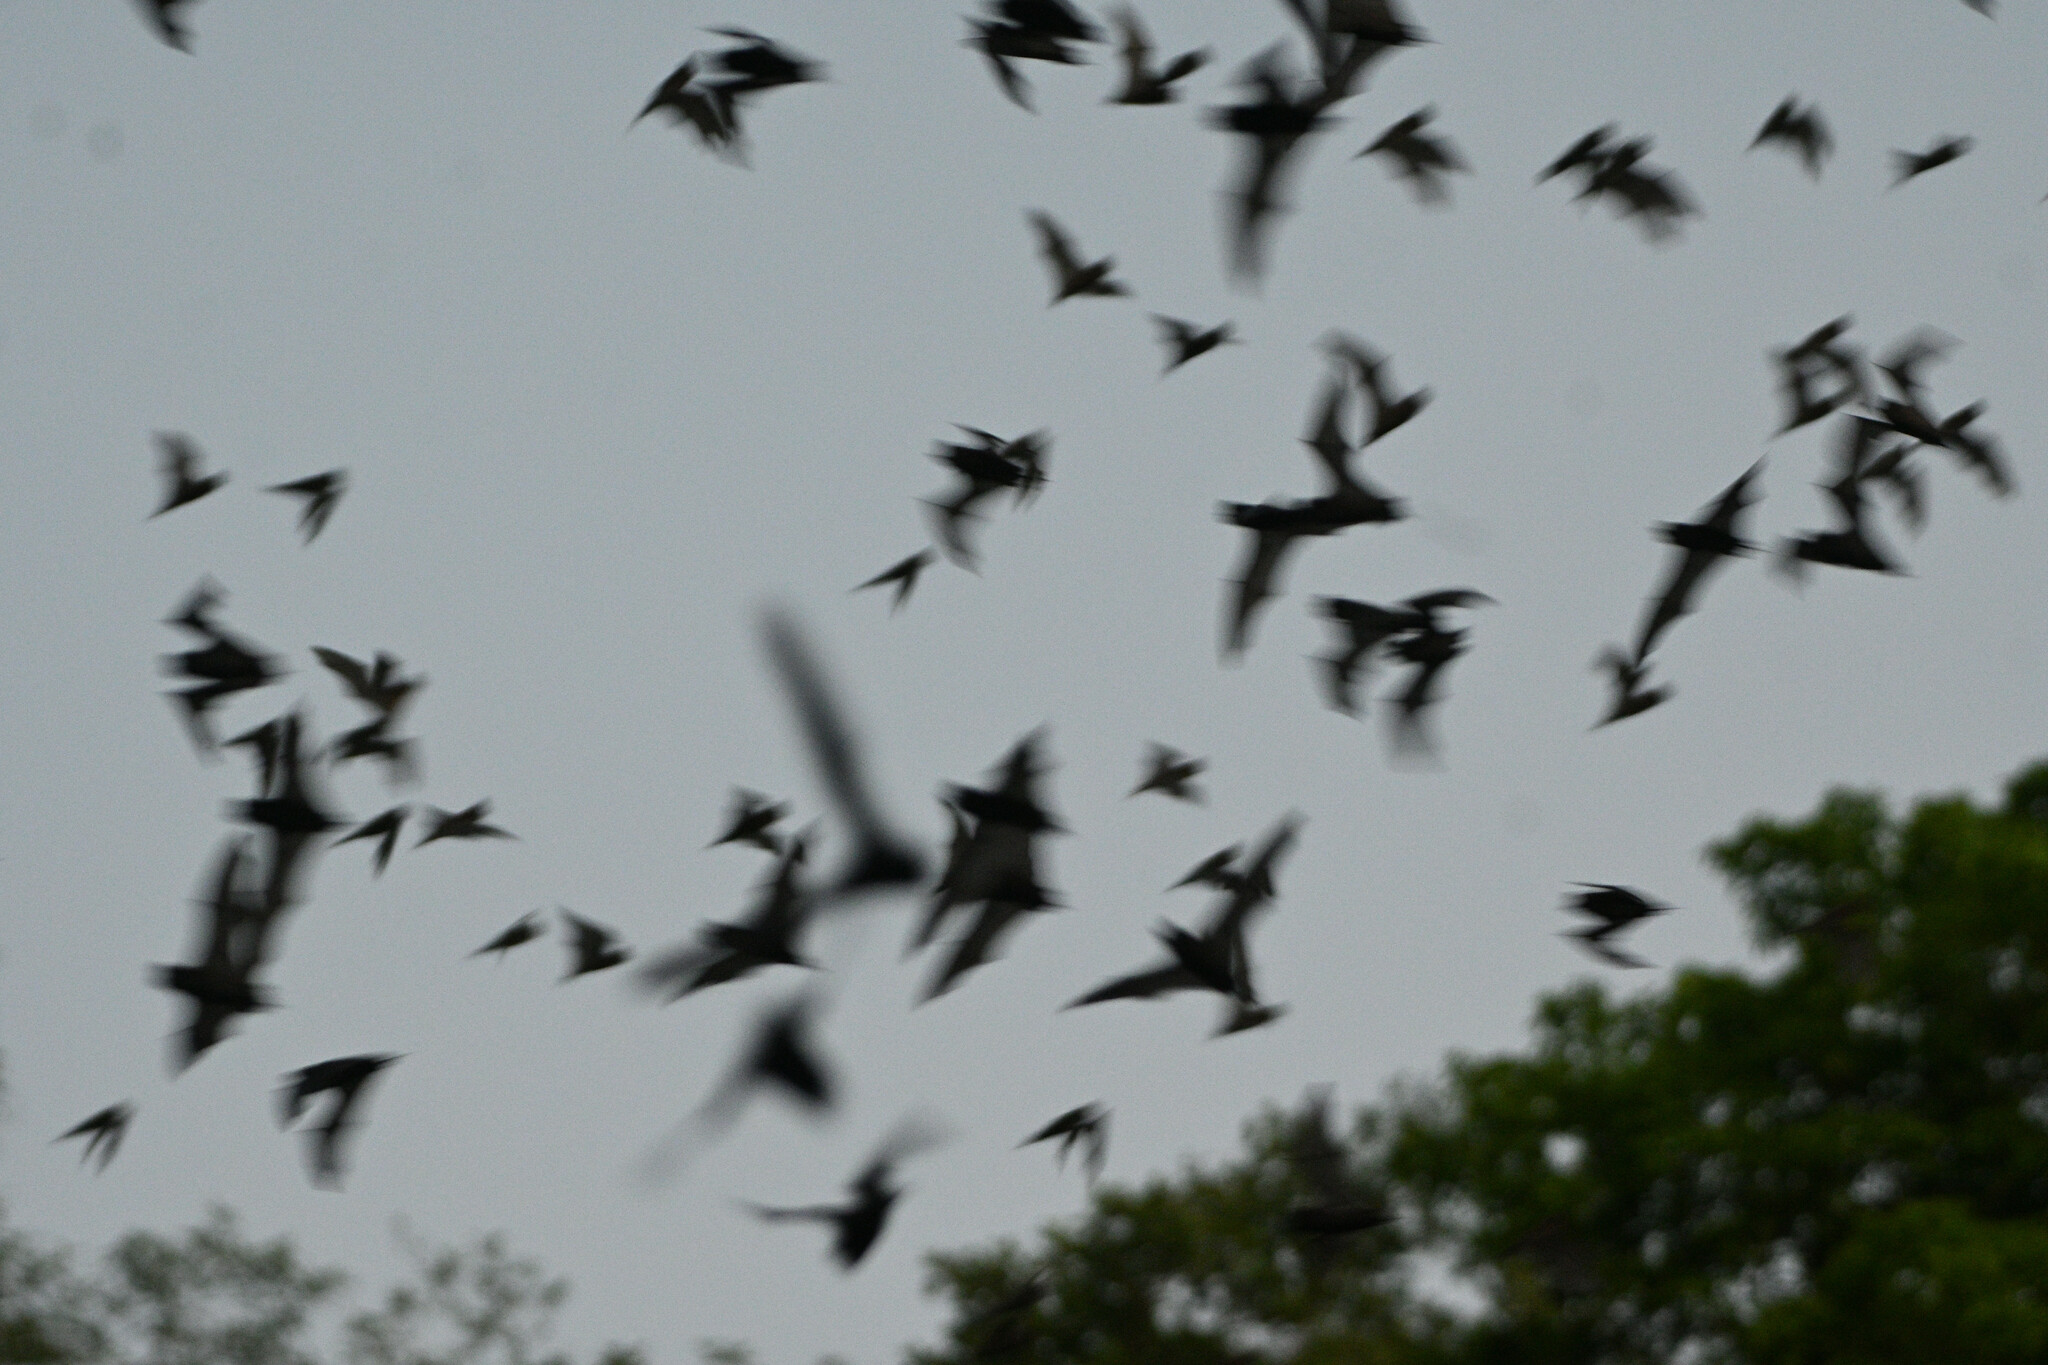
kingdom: Animalia
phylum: Chordata
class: Mammalia
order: Chiroptera
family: Molossidae
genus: Nyctinomops
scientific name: Nyctinomops laticaudatus
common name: Broad-eared free-tailed bat
